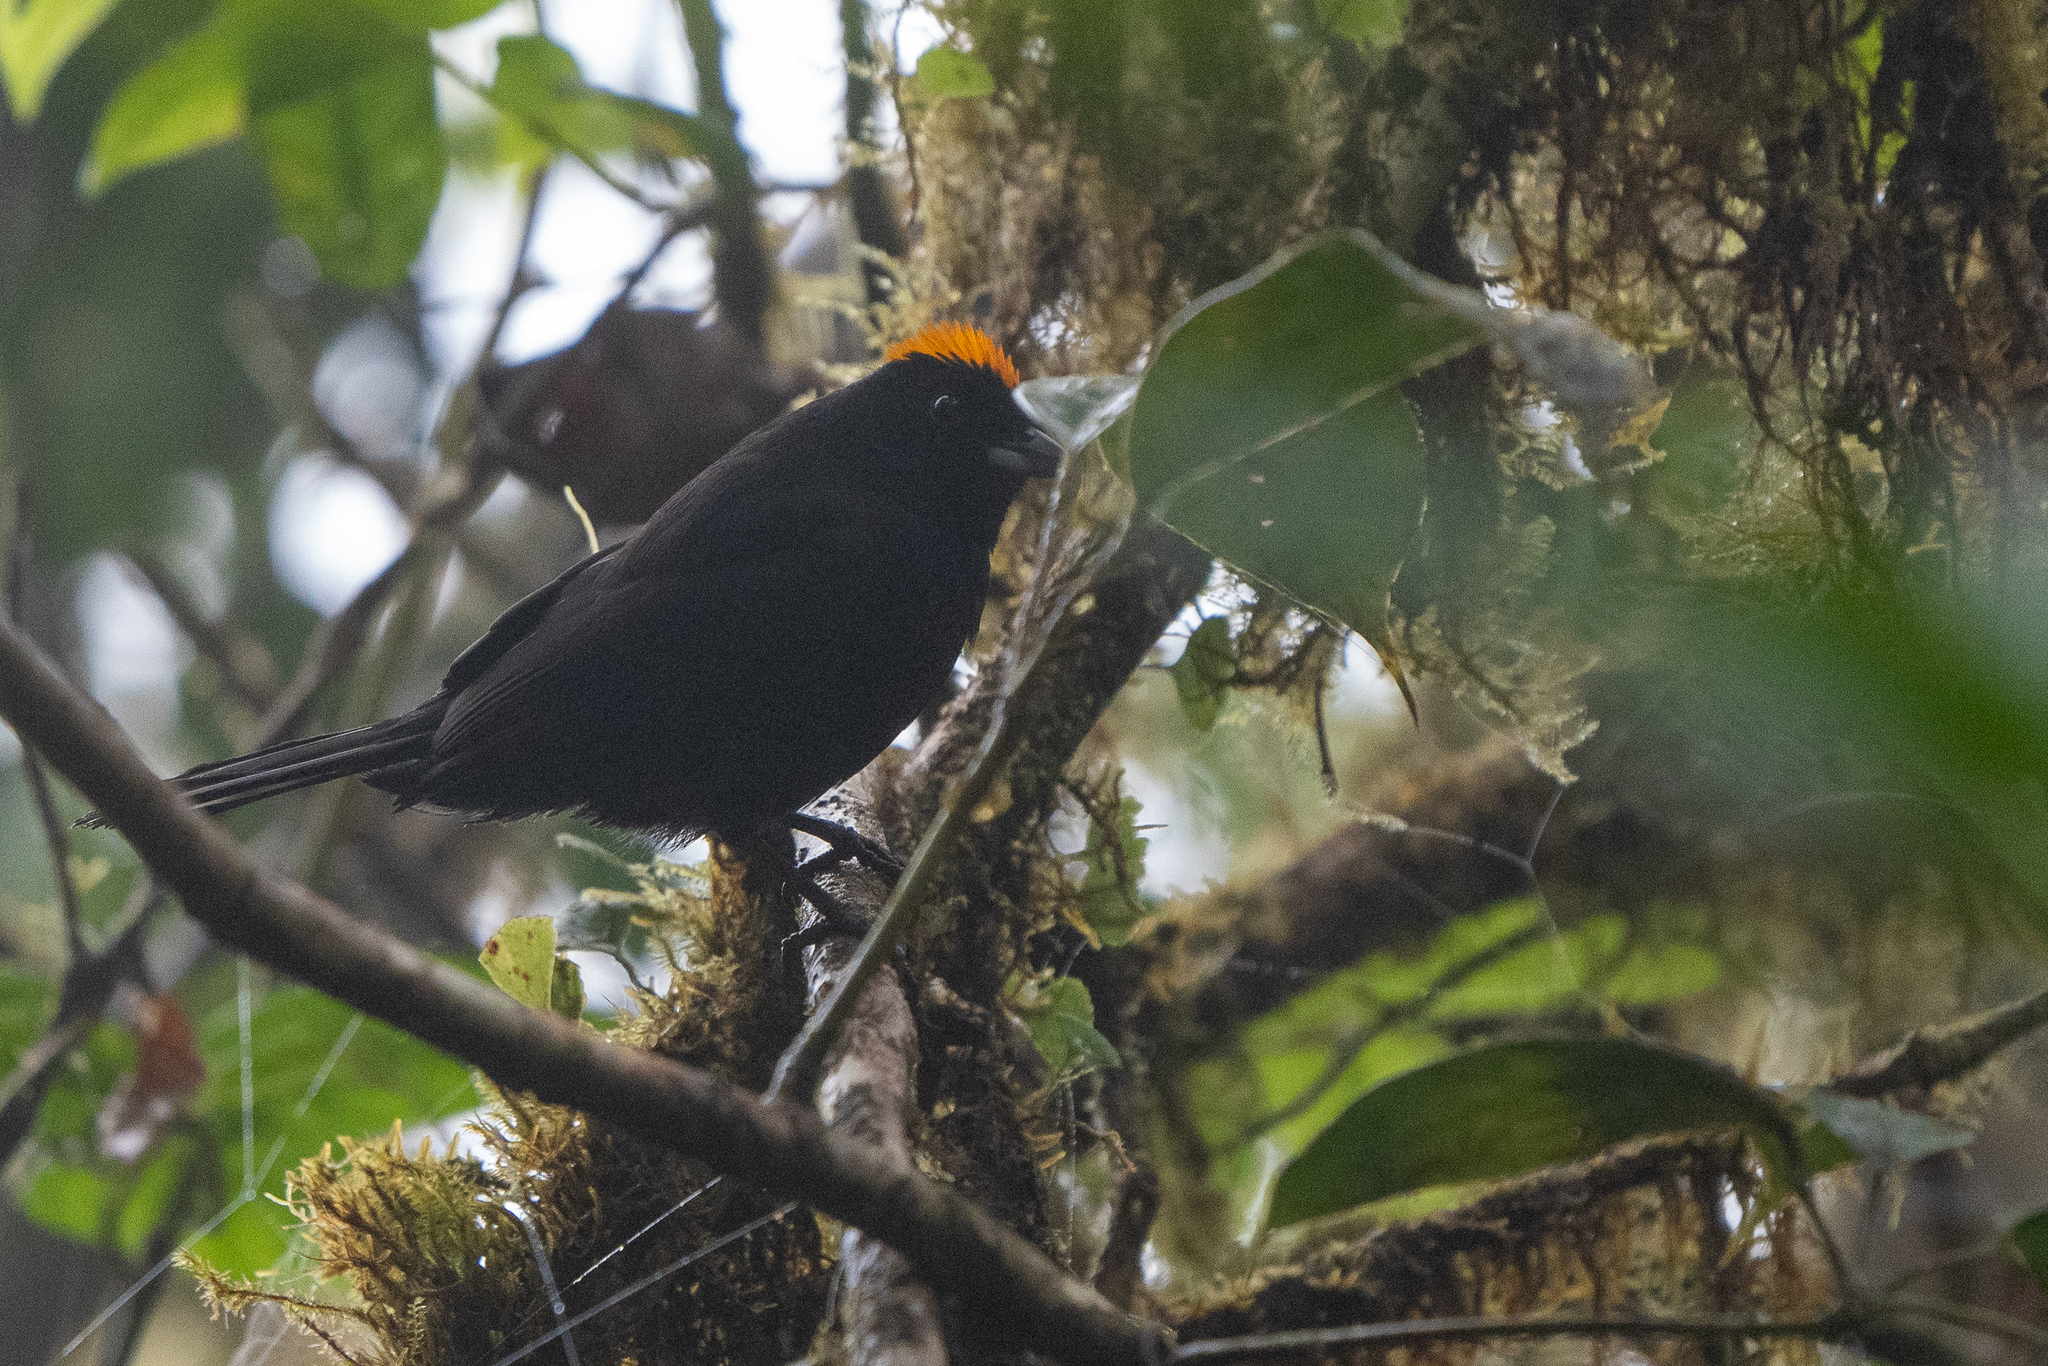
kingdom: Animalia
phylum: Chordata
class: Aves
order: Passeriformes
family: Thraupidae
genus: Tachyphonus
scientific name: Tachyphonus delatrii
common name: Tawny-crested tanager
